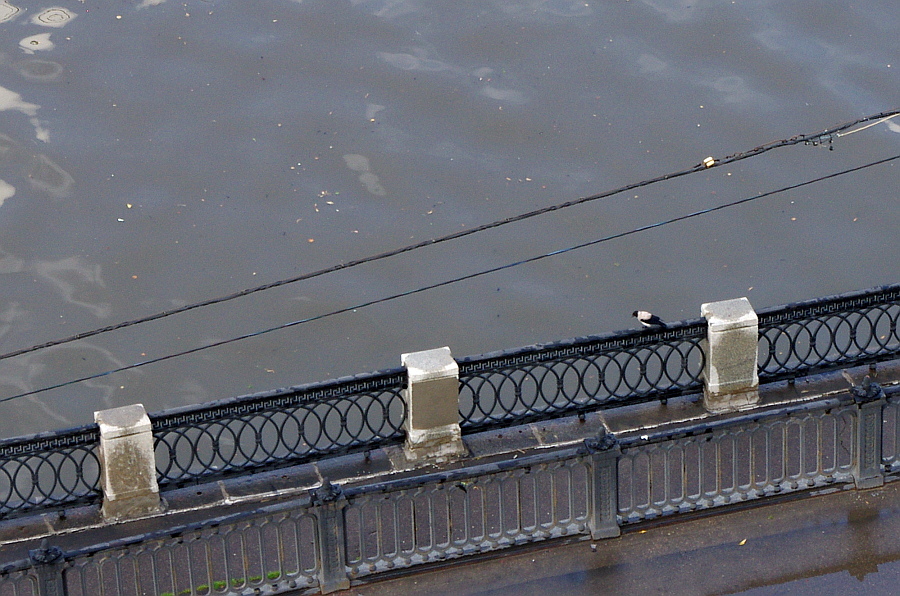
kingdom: Animalia
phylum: Chordata
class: Aves
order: Passeriformes
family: Corvidae
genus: Corvus
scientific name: Corvus cornix
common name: Hooded crow
